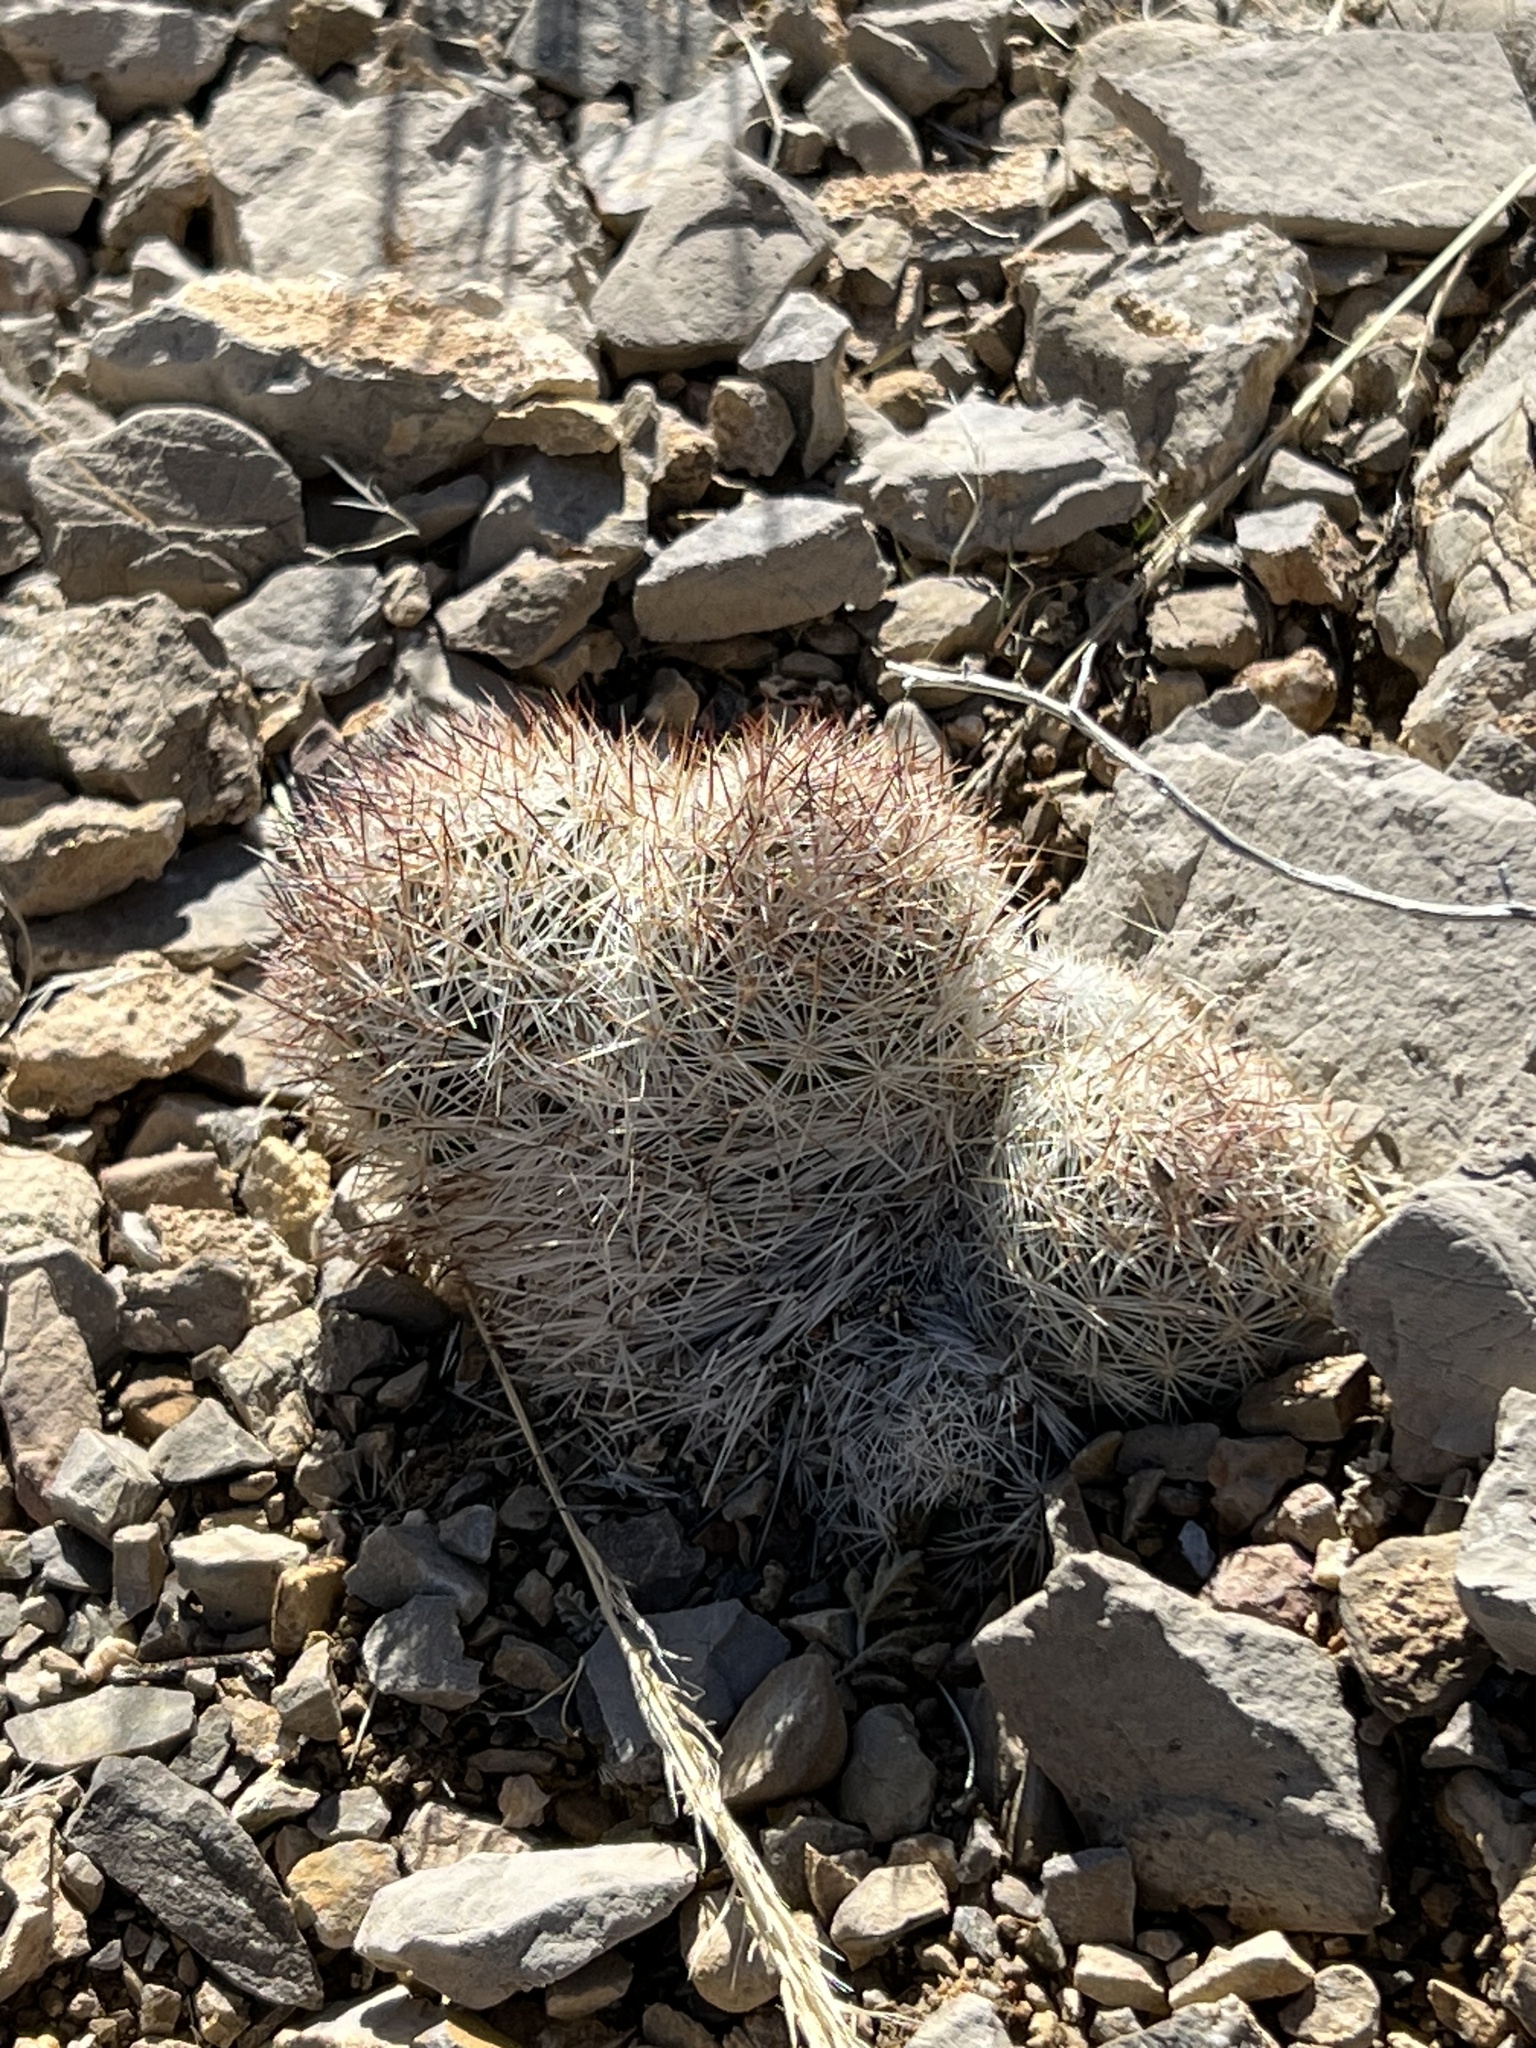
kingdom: Plantae
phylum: Tracheophyta
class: Magnoliopsida
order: Caryophyllales
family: Cactaceae
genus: Pelecyphora
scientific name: Pelecyphora dasyacantha
